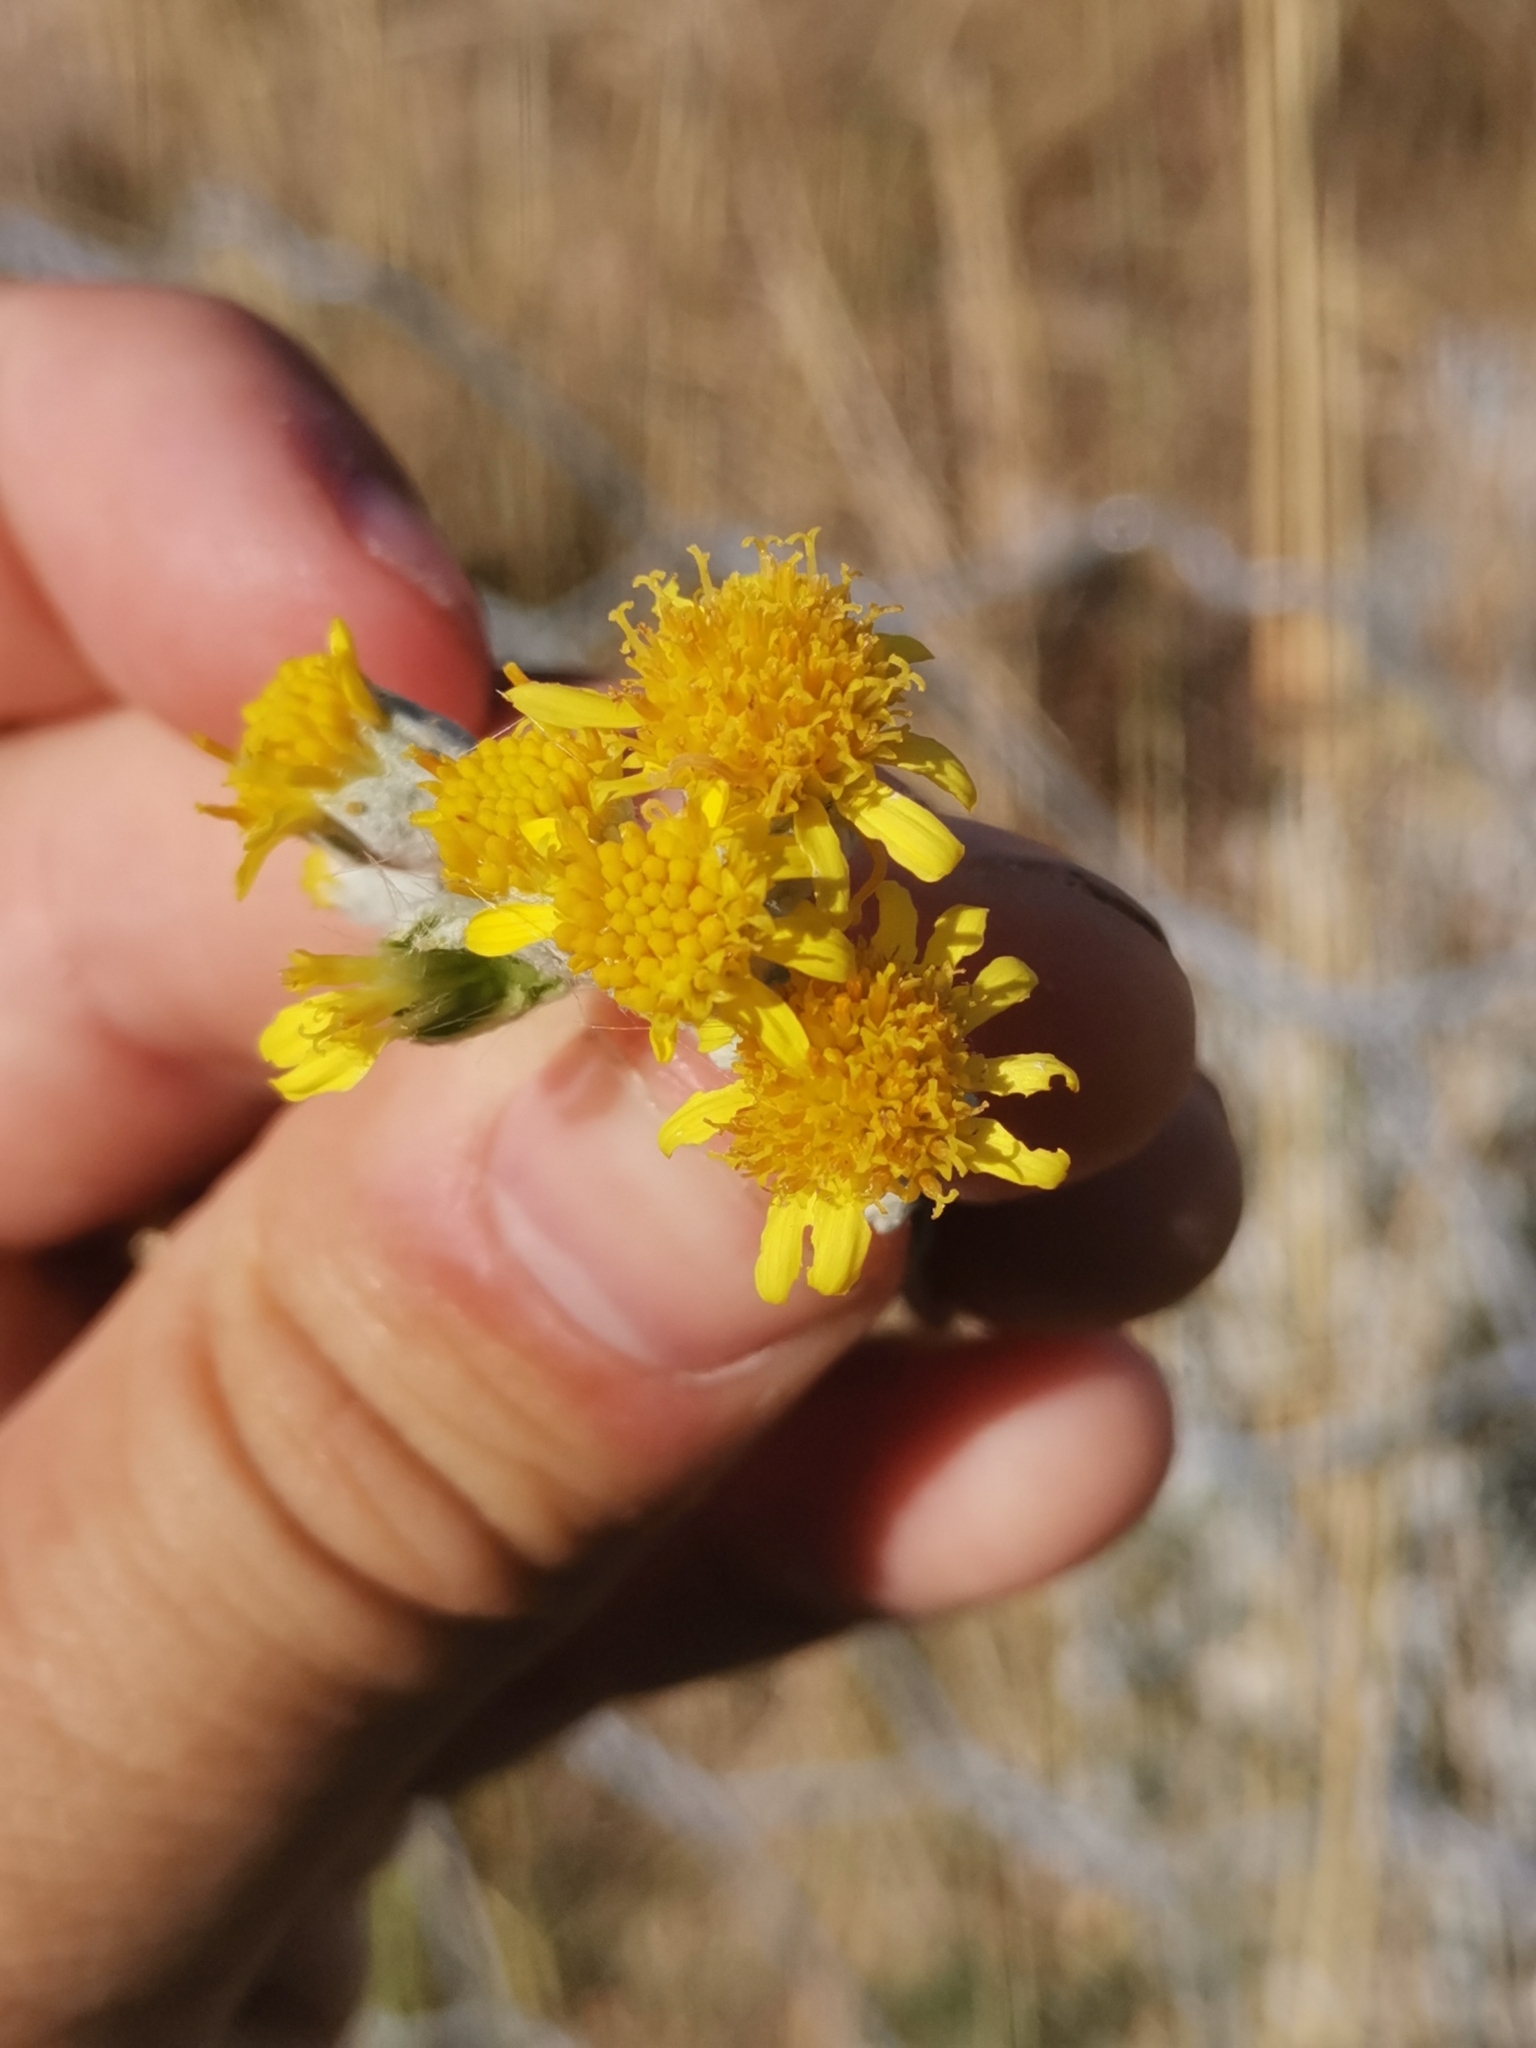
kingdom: Plantae
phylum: Tracheophyta
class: Magnoliopsida
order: Asterales
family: Asteraceae
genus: Jacobaea
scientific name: Jacobaea maritima
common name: Silver ragwort
